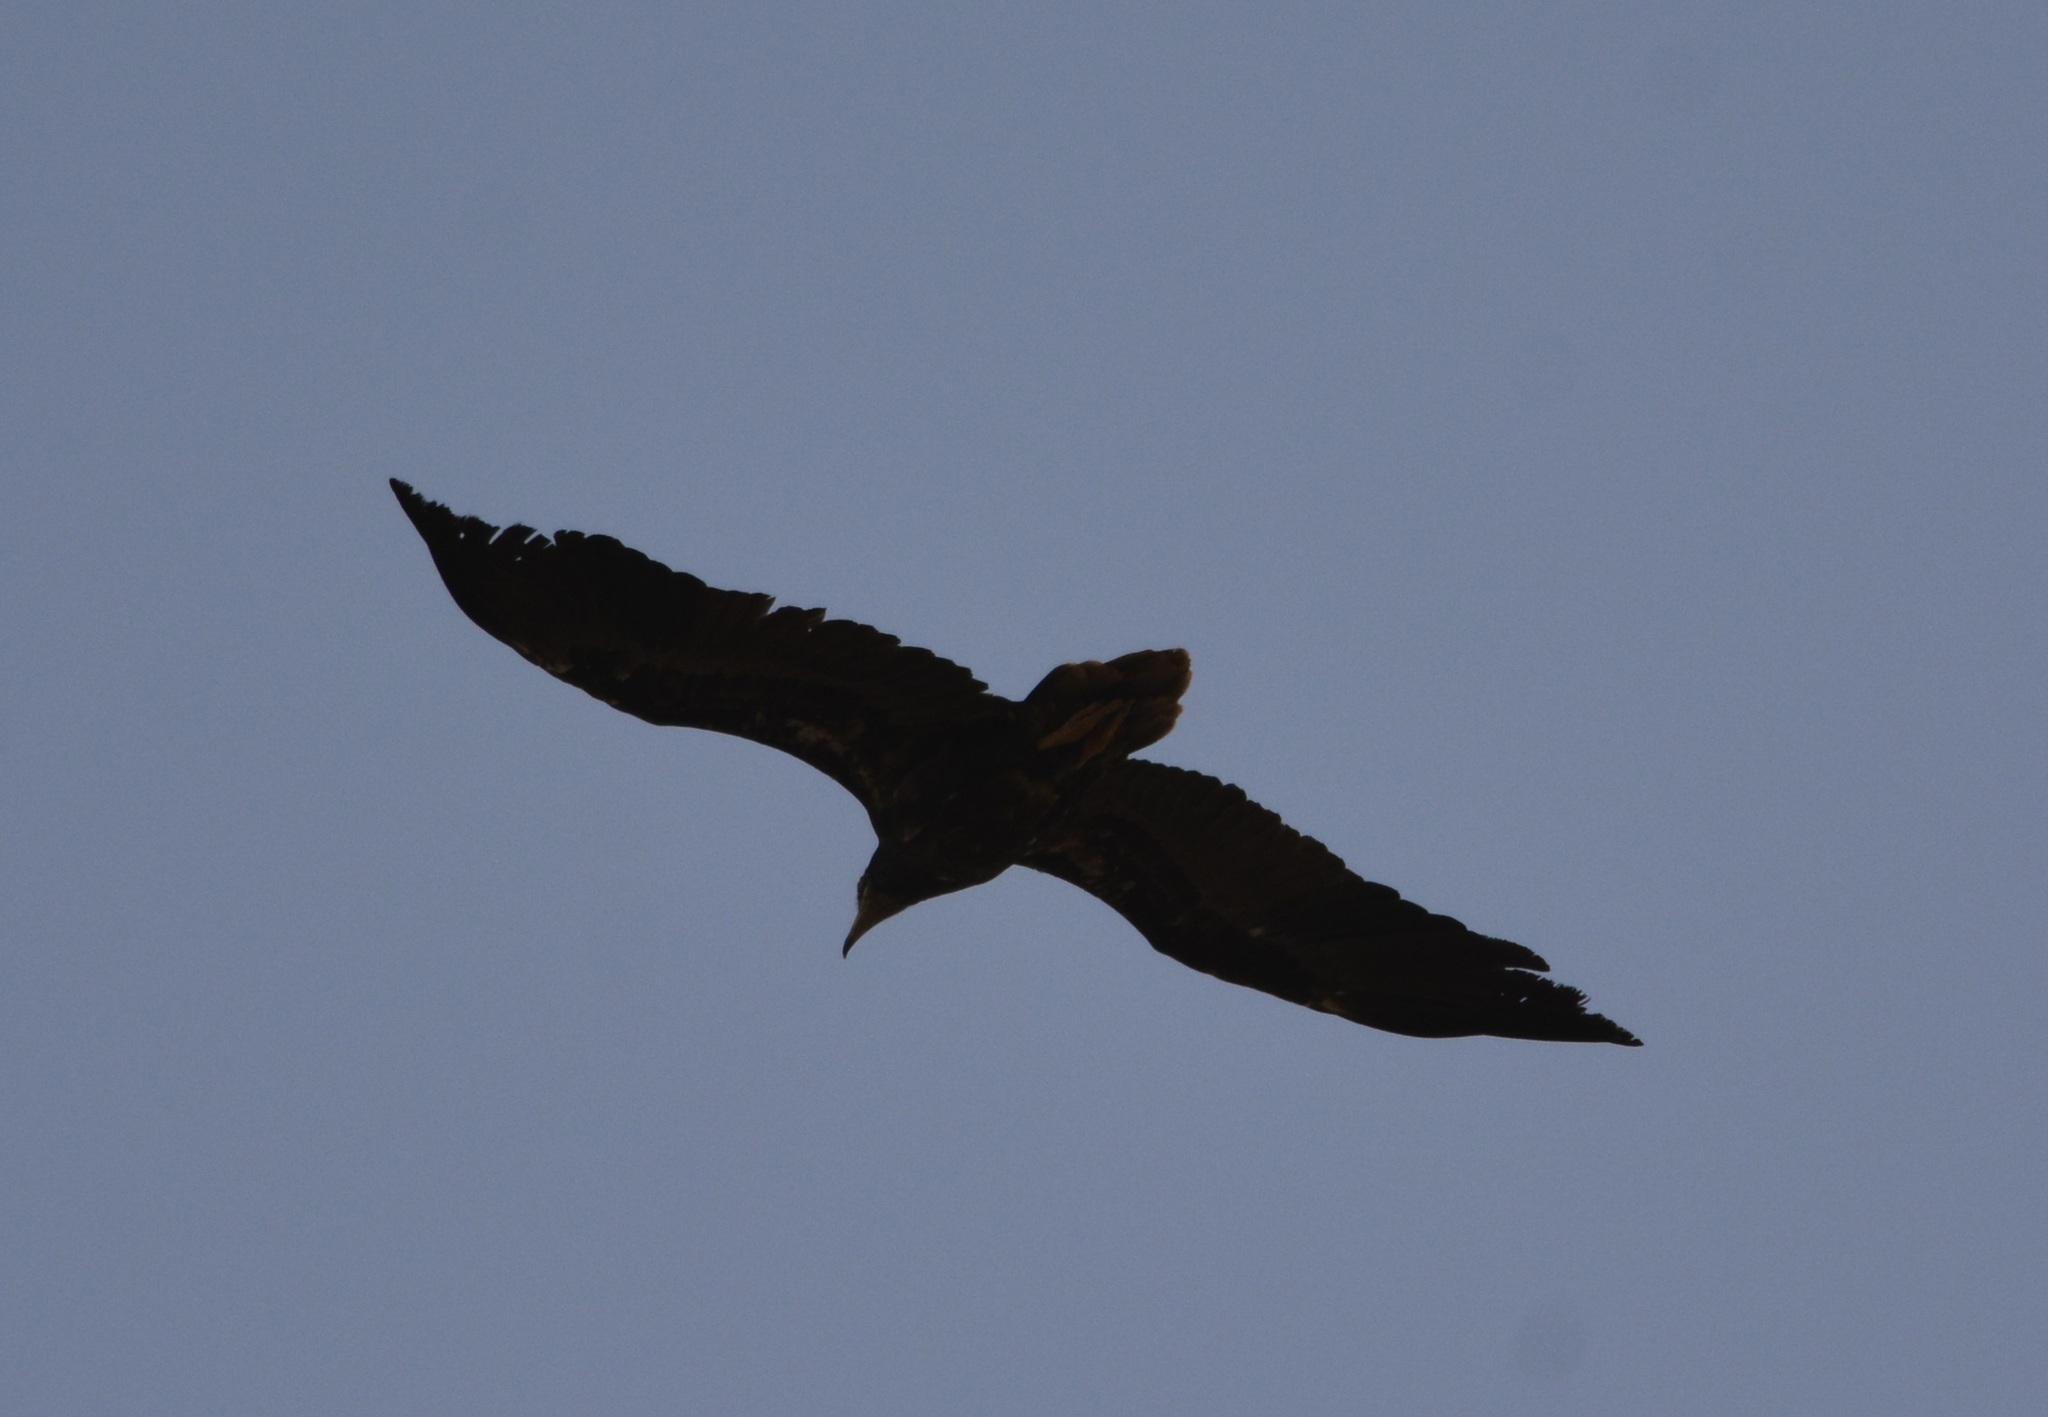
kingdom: Animalia
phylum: Chordata
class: Aves
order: Accipitriformes
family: Accipitridae
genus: Neophron
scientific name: Neophron percnopterus
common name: Egyptian vulture
